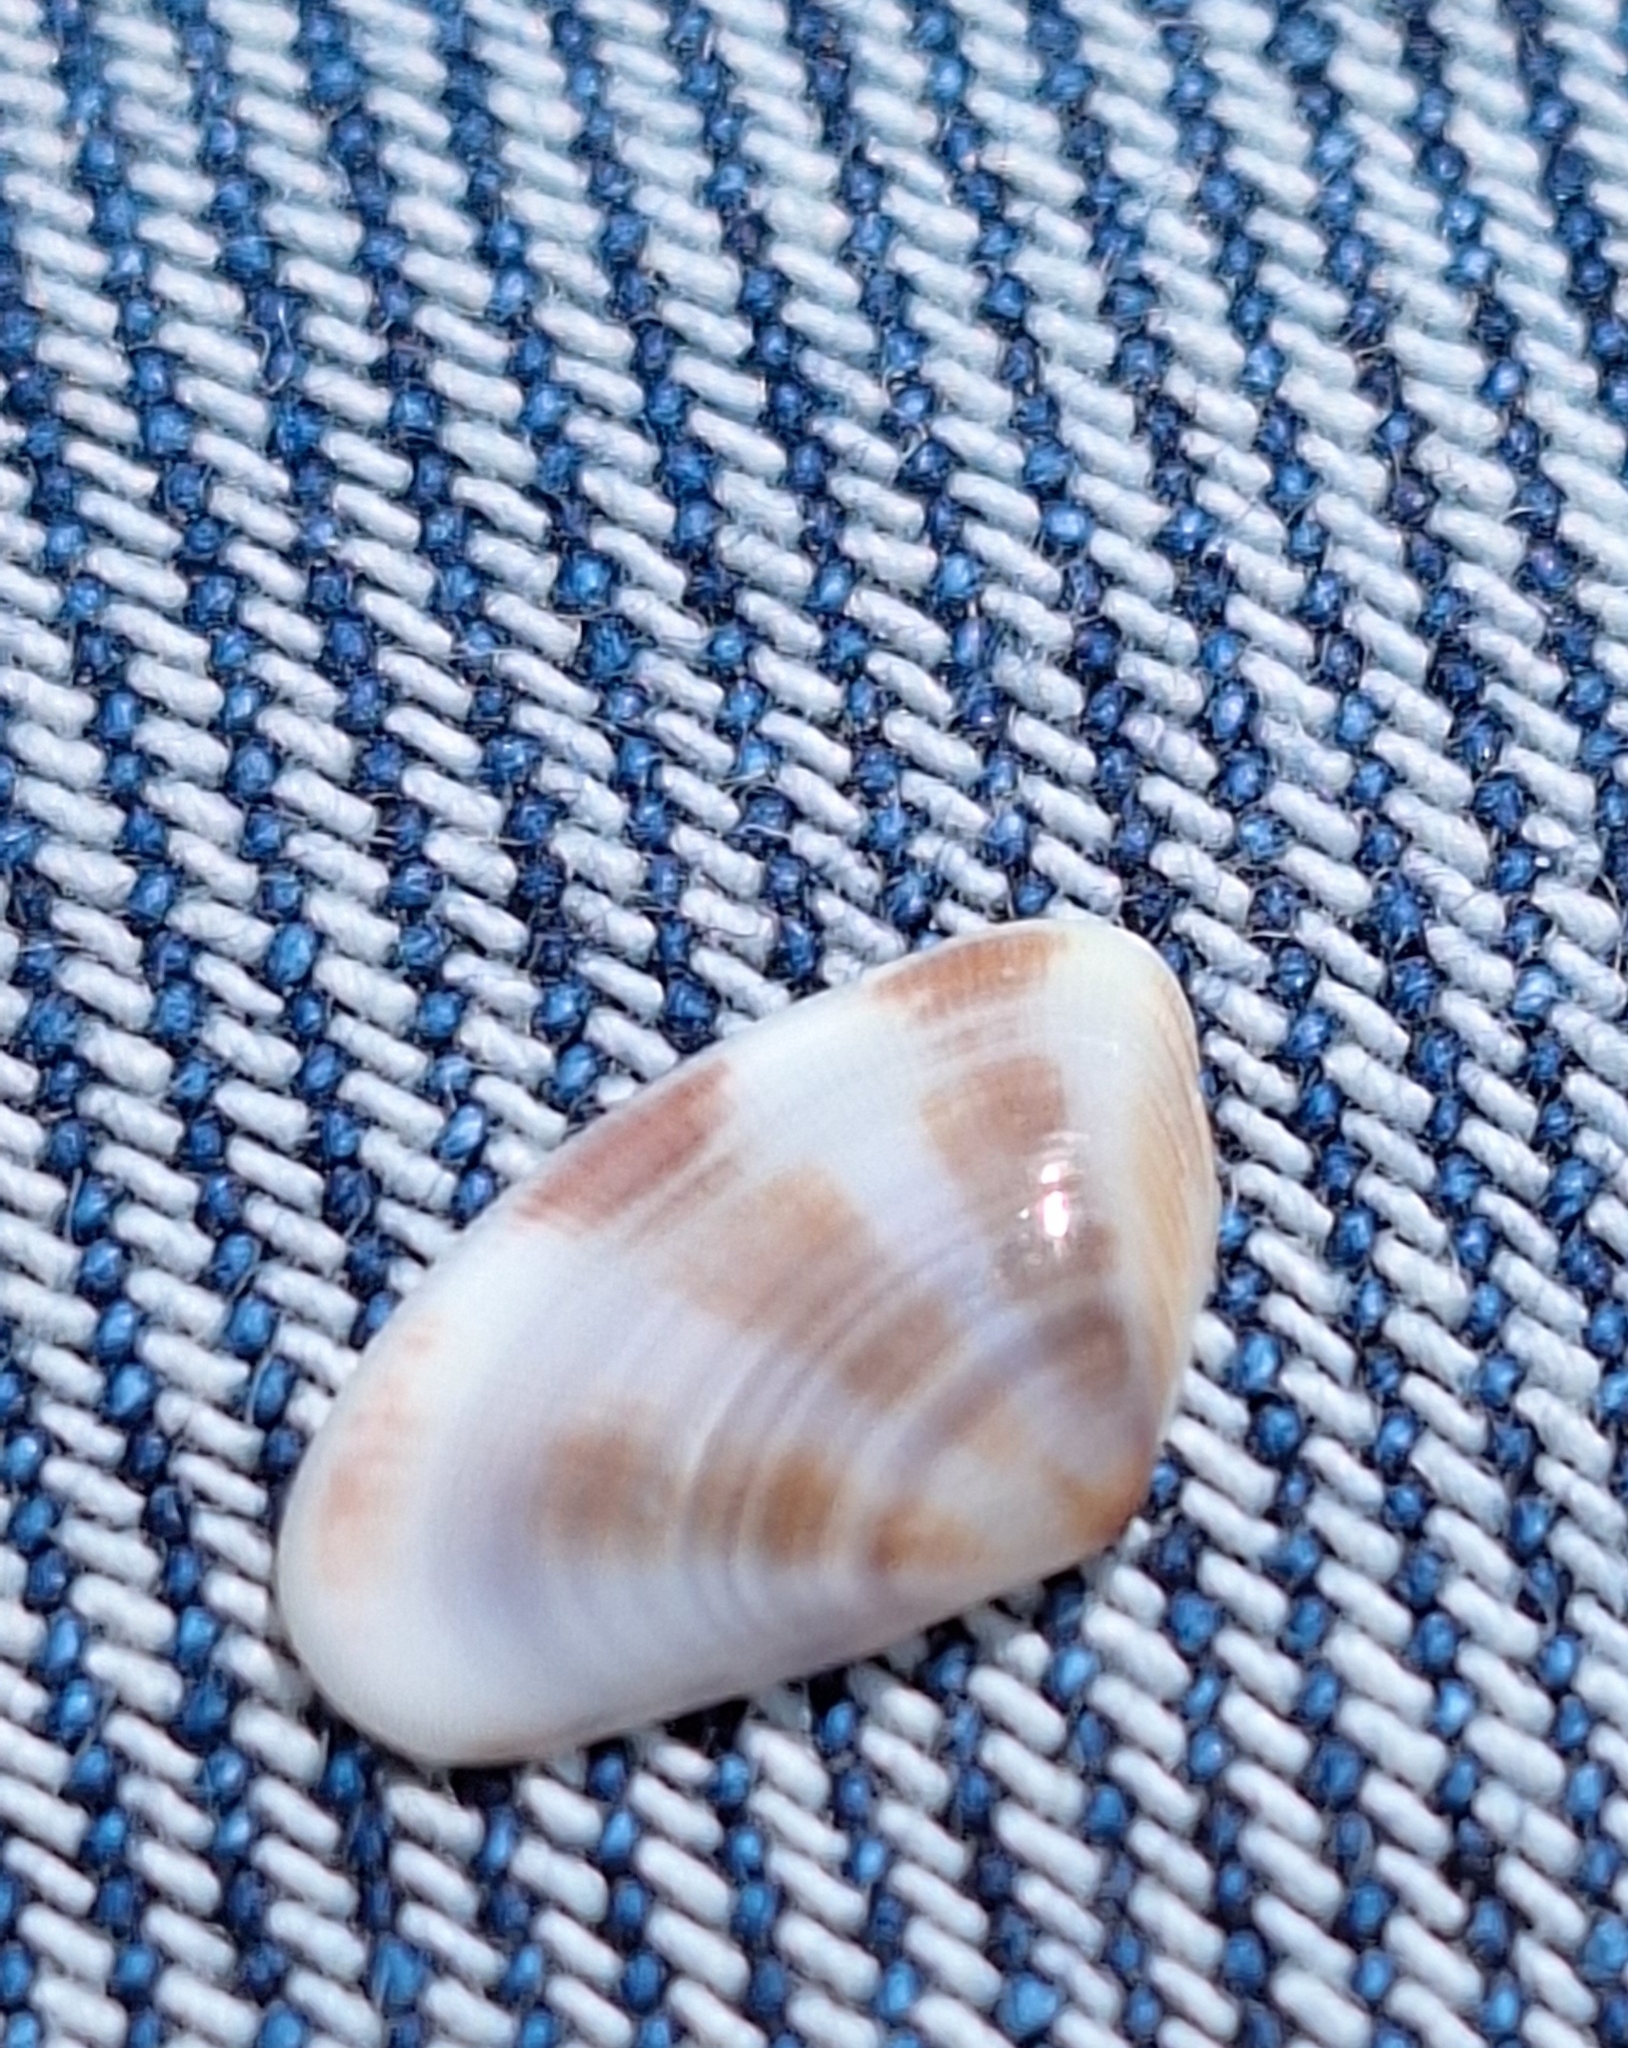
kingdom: Animalia
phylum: Mollusca
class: Bivalvia
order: Cardiida
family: Donacidae
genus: Donax
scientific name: Donax venustus
